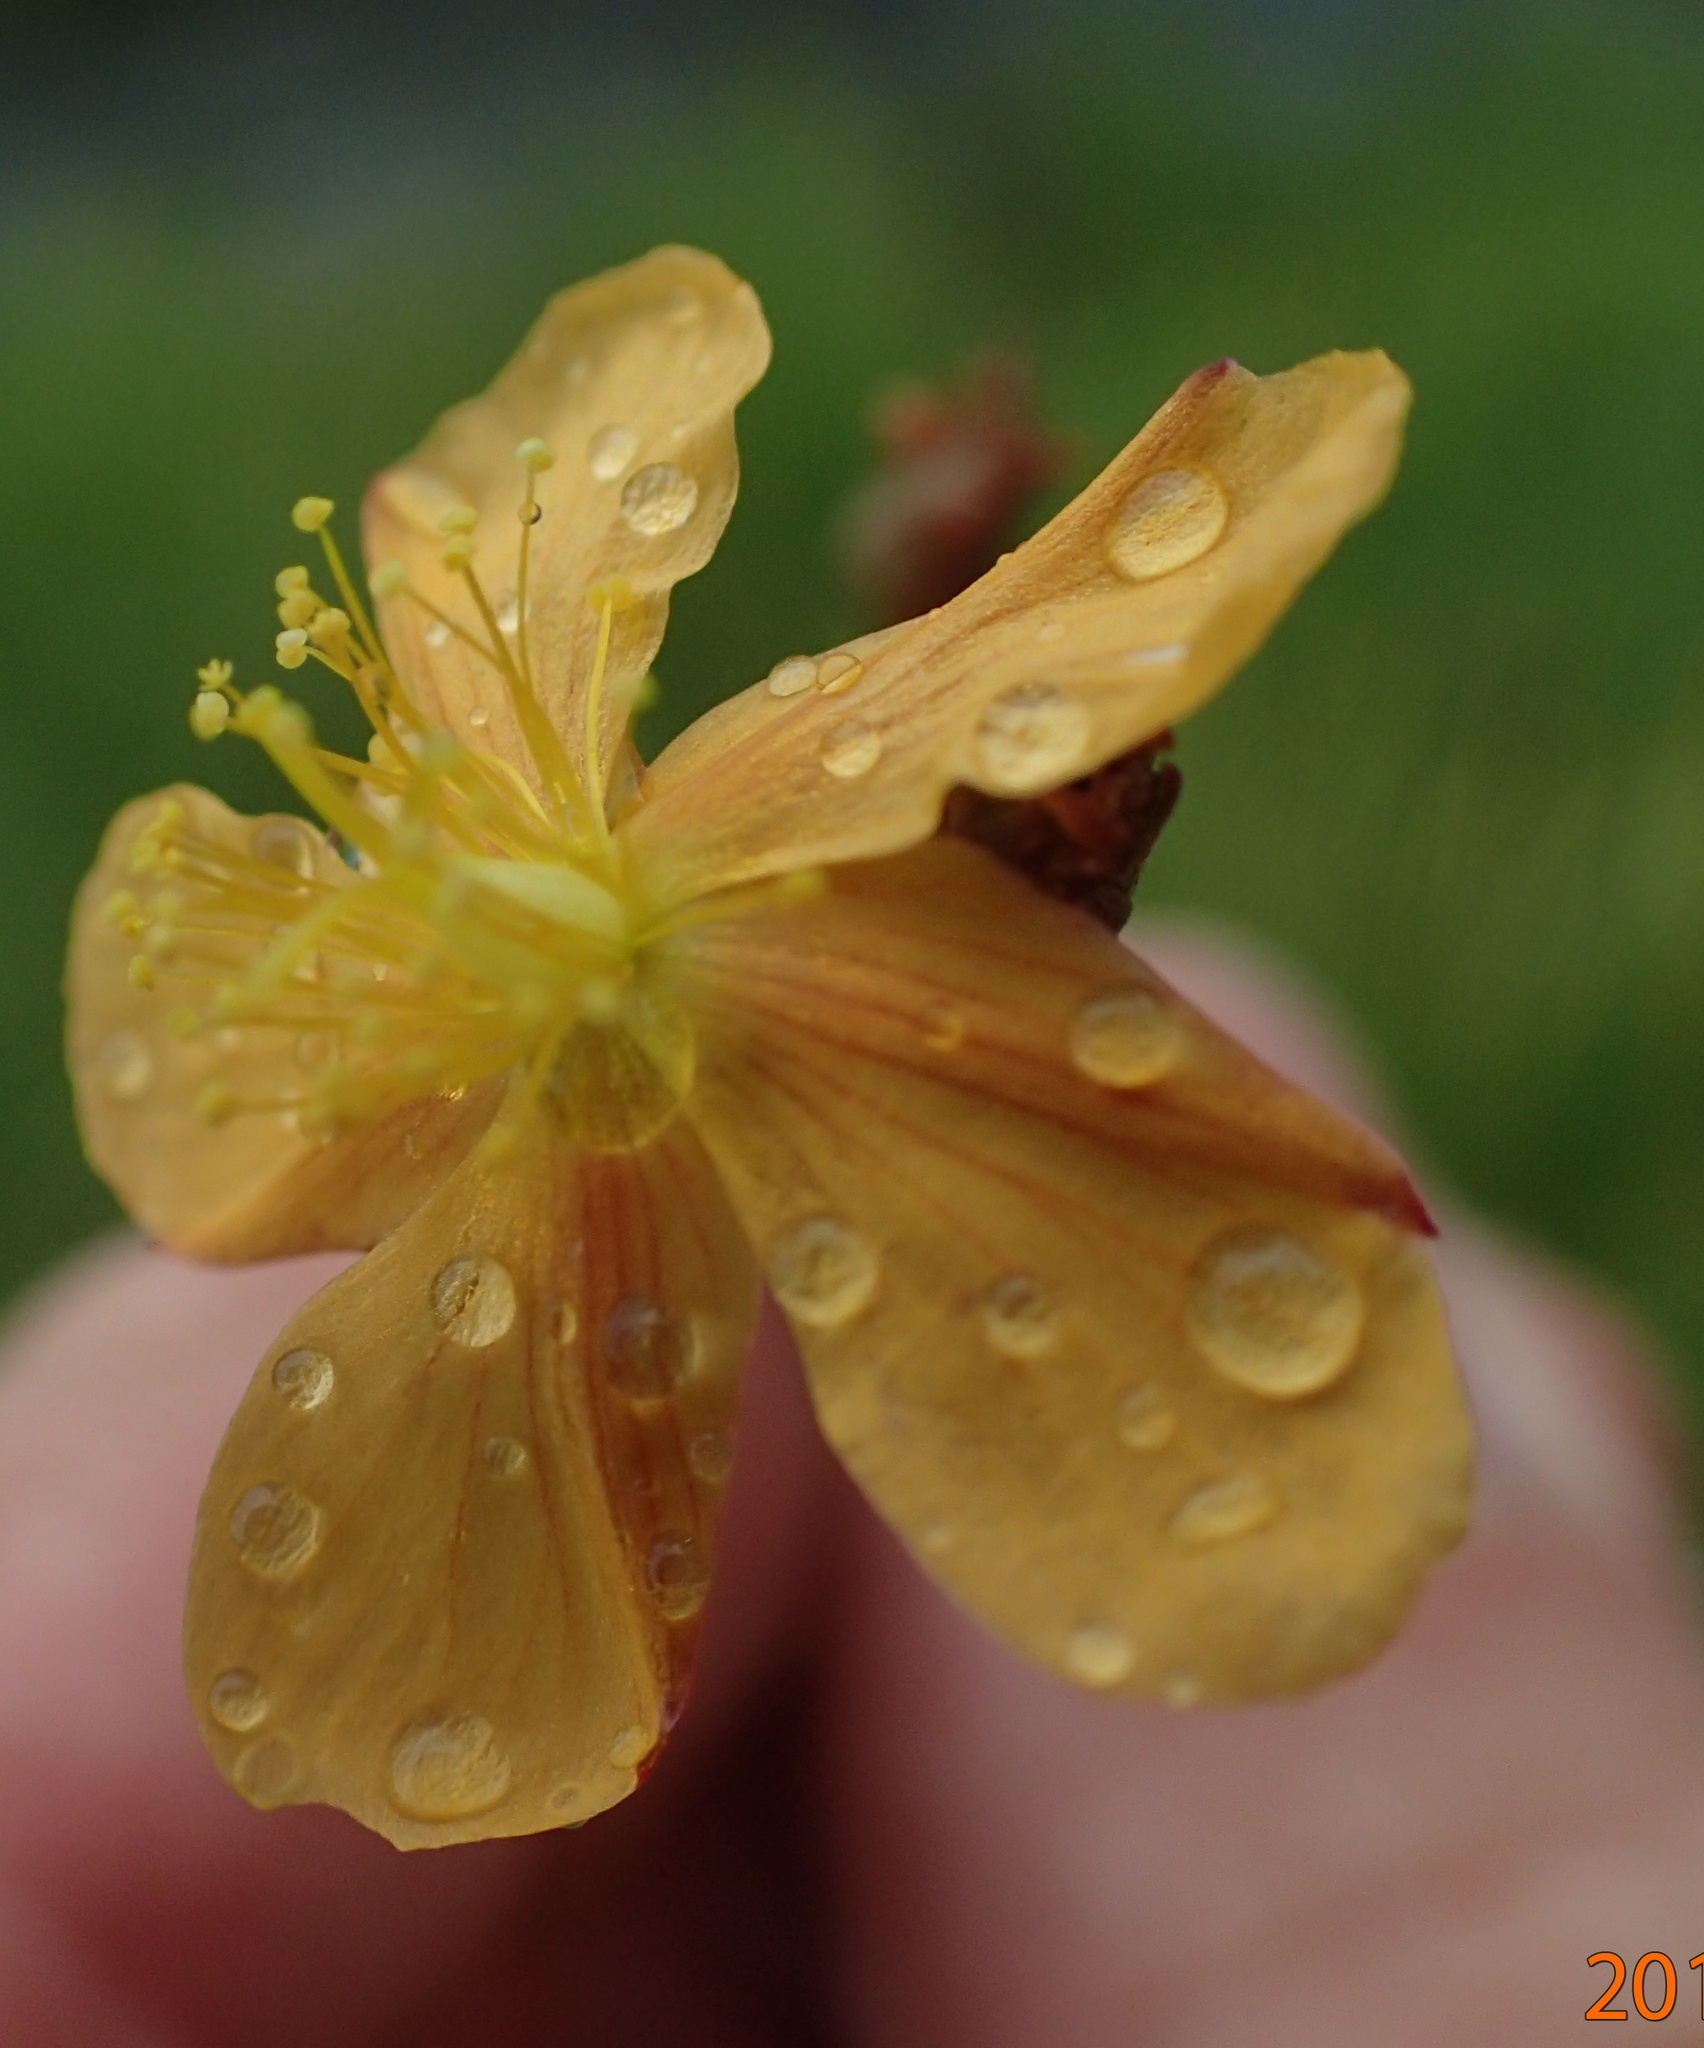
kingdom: Plantae
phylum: Tracheophyta
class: Magnoliopsida
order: Malpighiales
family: Hypericaceae
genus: Hypericum
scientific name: Hypericum lalandii
